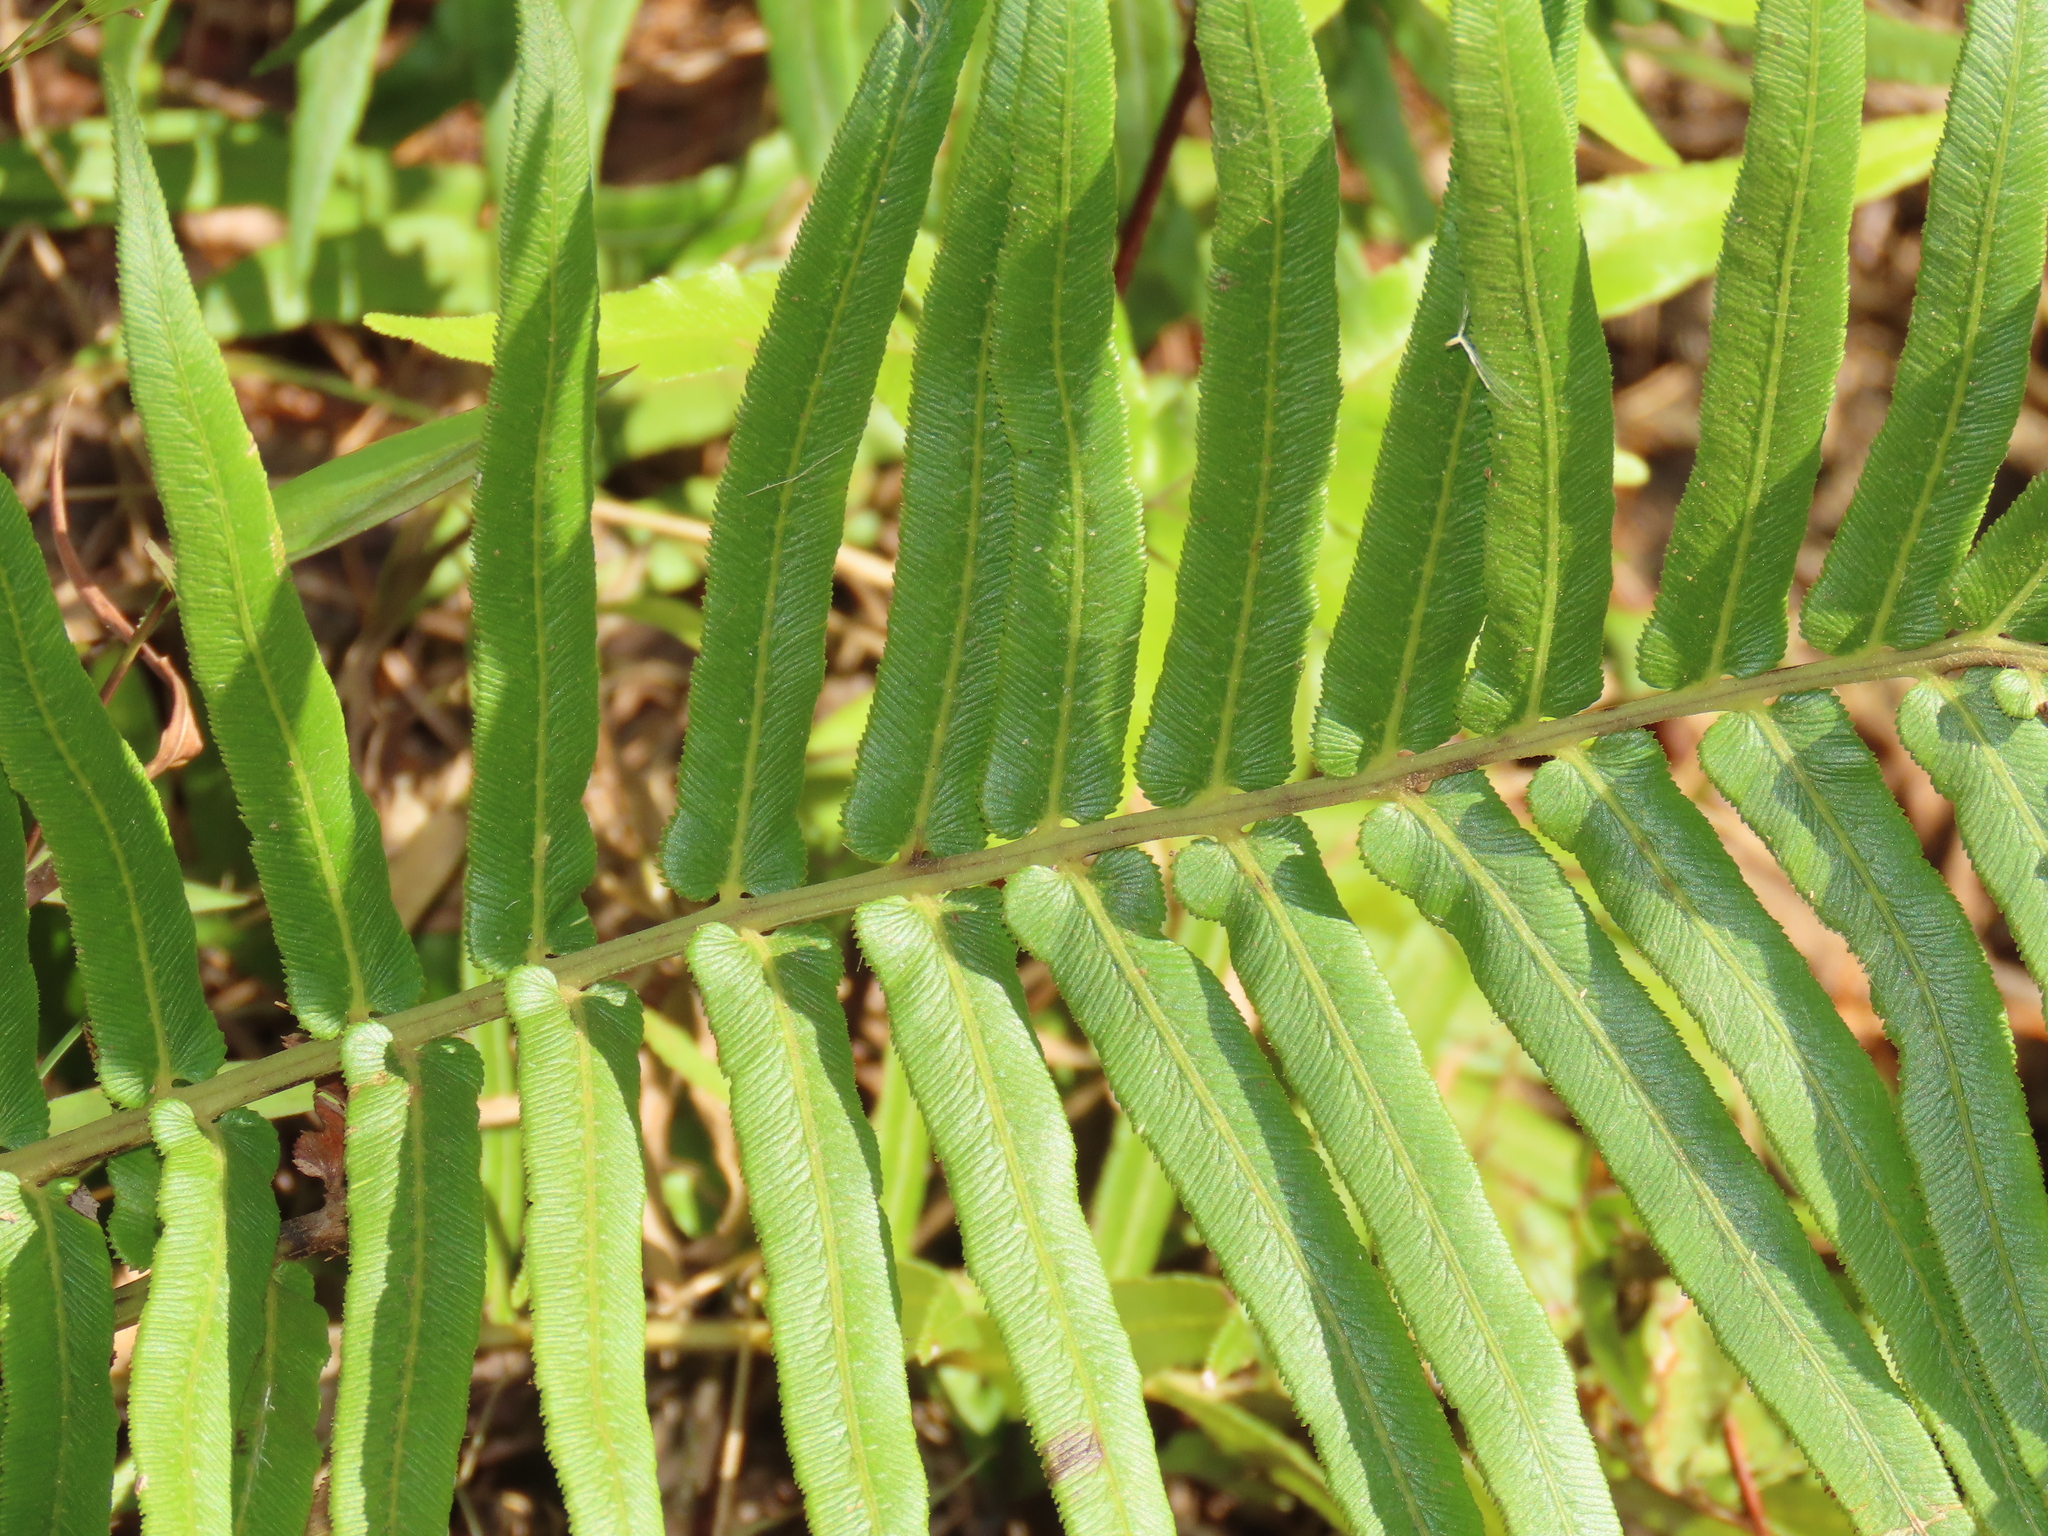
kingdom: Plantae
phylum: Tracheophyta
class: Polypodiopsida
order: Polypodiales
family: Blechnaceae
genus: Brainea
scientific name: Brainea insignis
